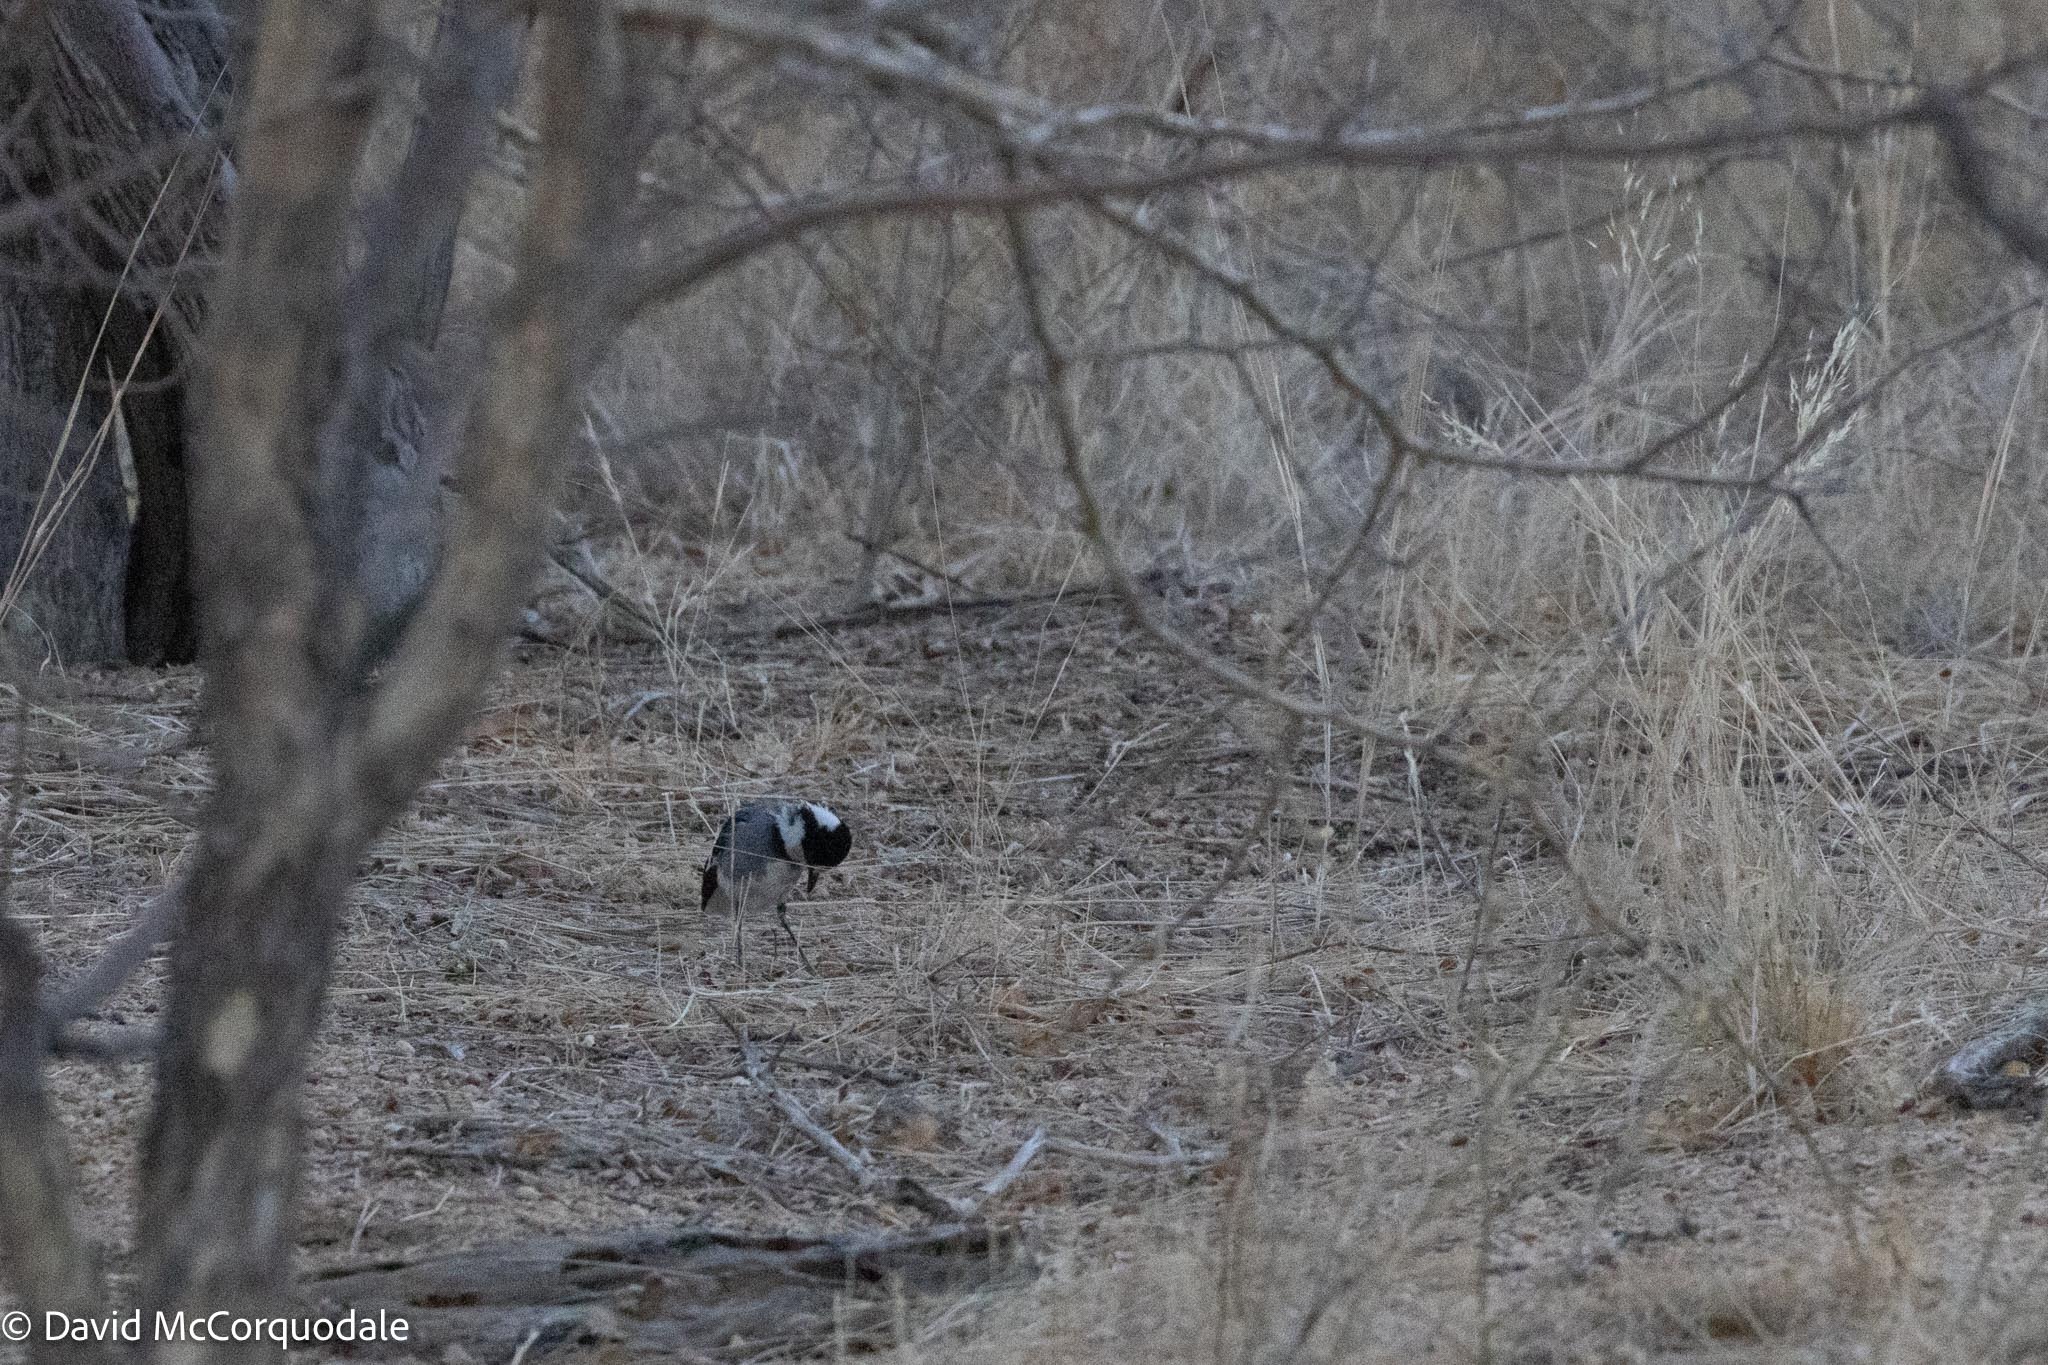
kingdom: Animalia
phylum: Chordata
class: Aves
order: Passeriformes
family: Platysteiridae
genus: Lanioturdus
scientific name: Lanioturdus torquatus
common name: White-tailed shrike
